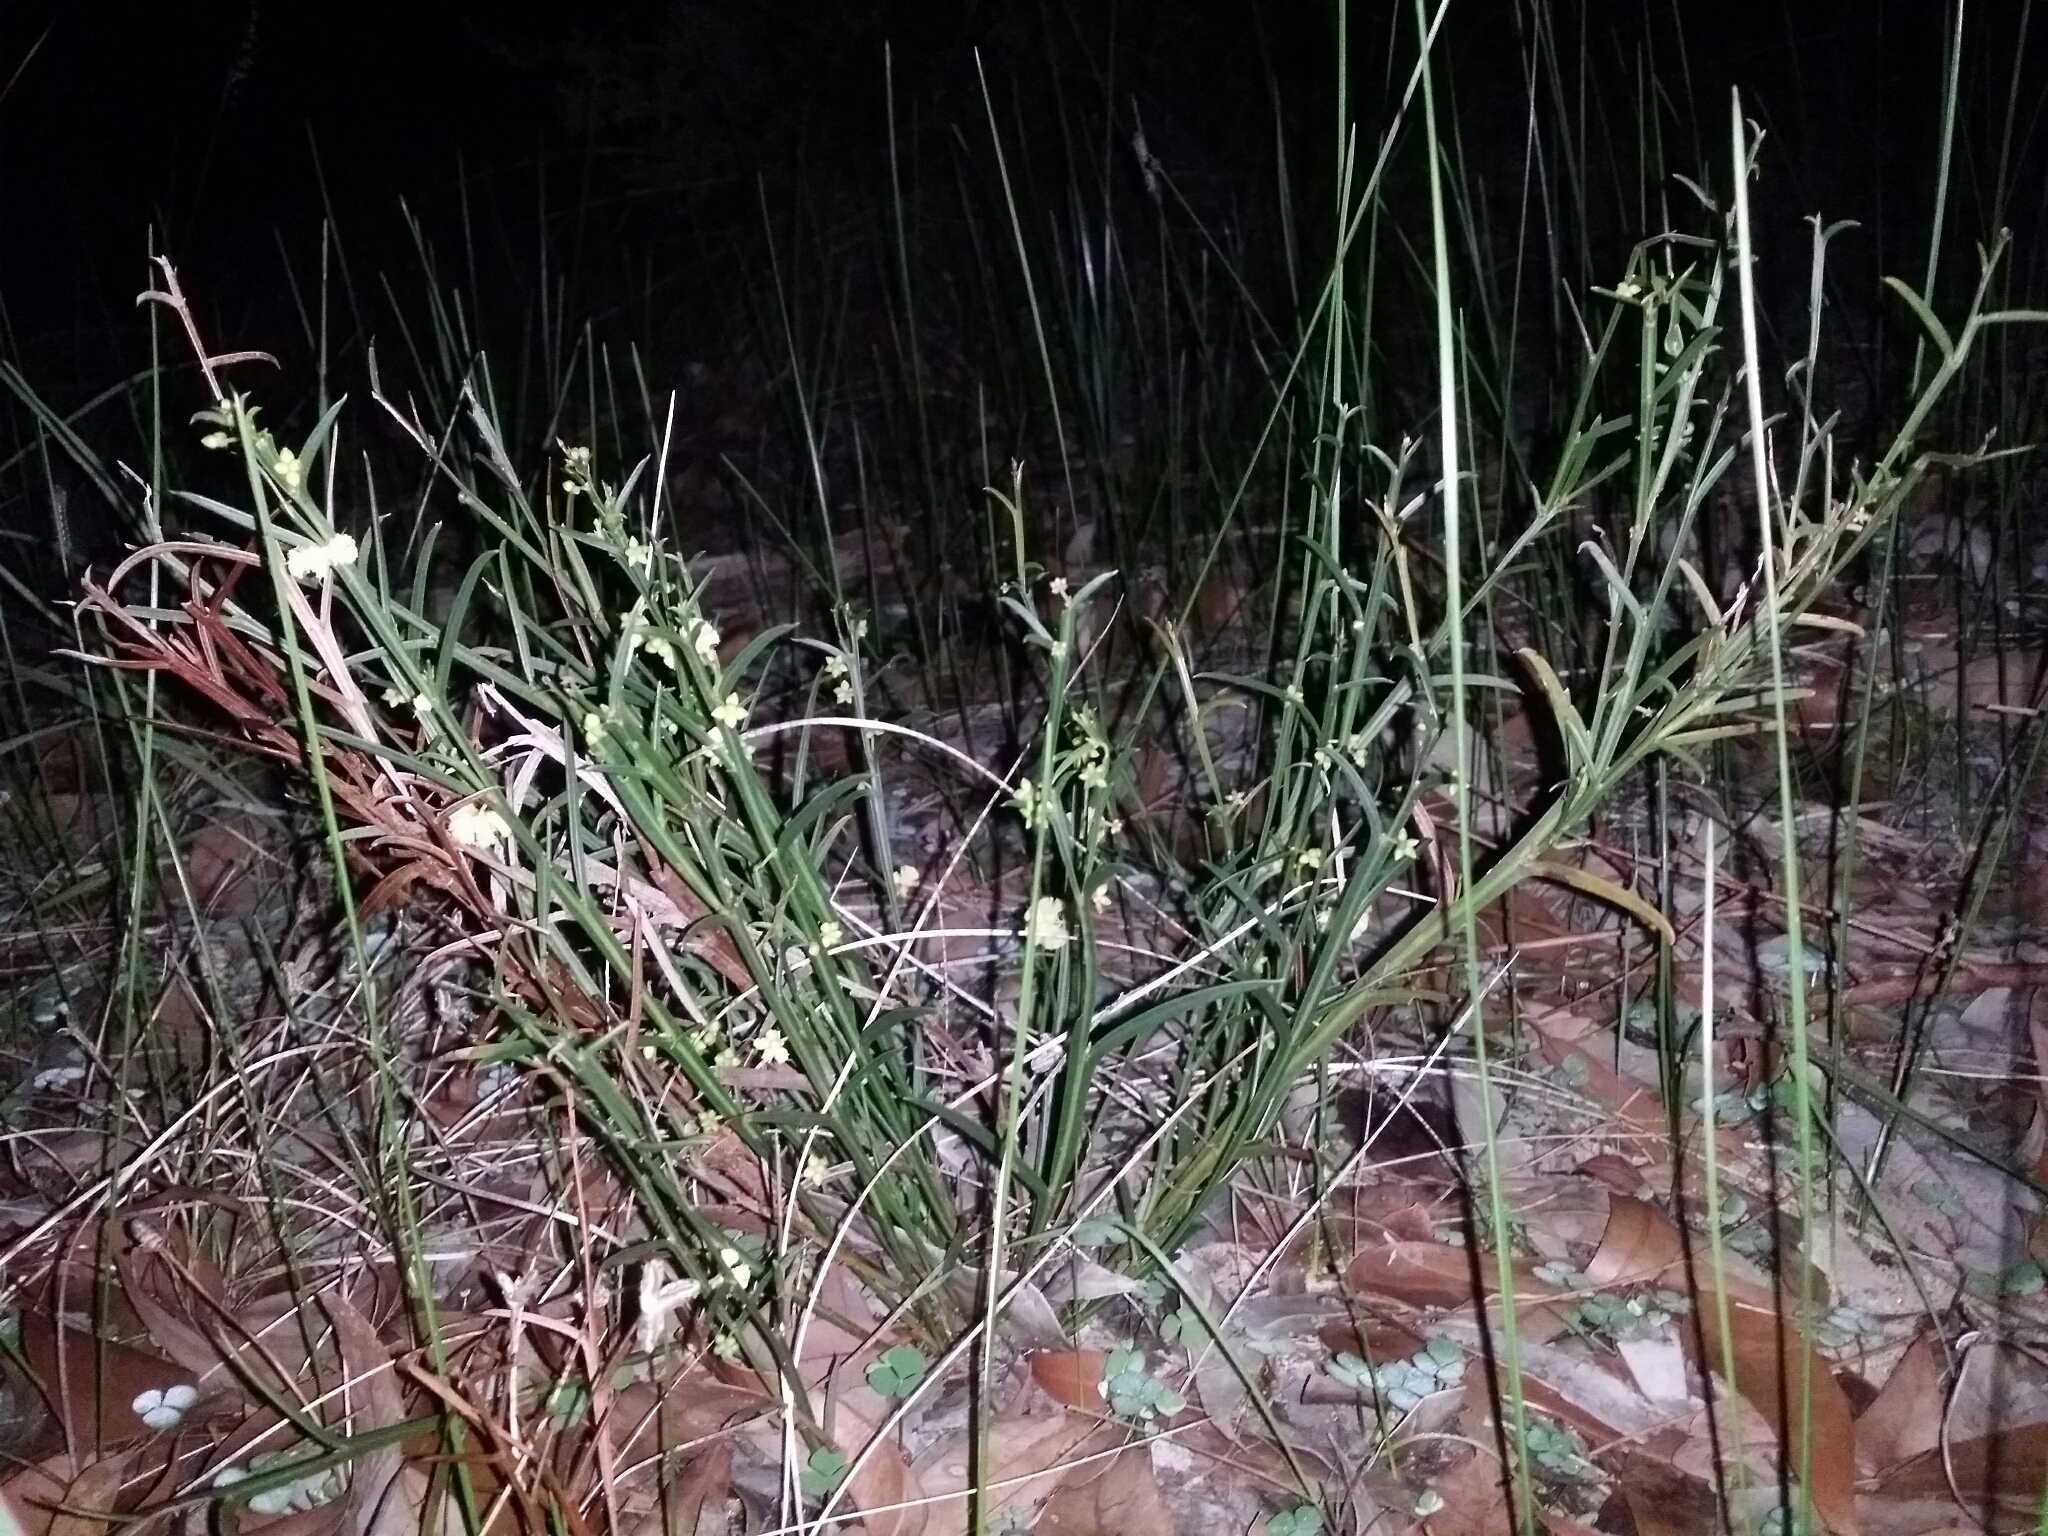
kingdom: Plantae
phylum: Tracheophyta
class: Magnoliopsida
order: Fabales
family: Fabaceae
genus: Acacia
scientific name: Acacia stenoptera
